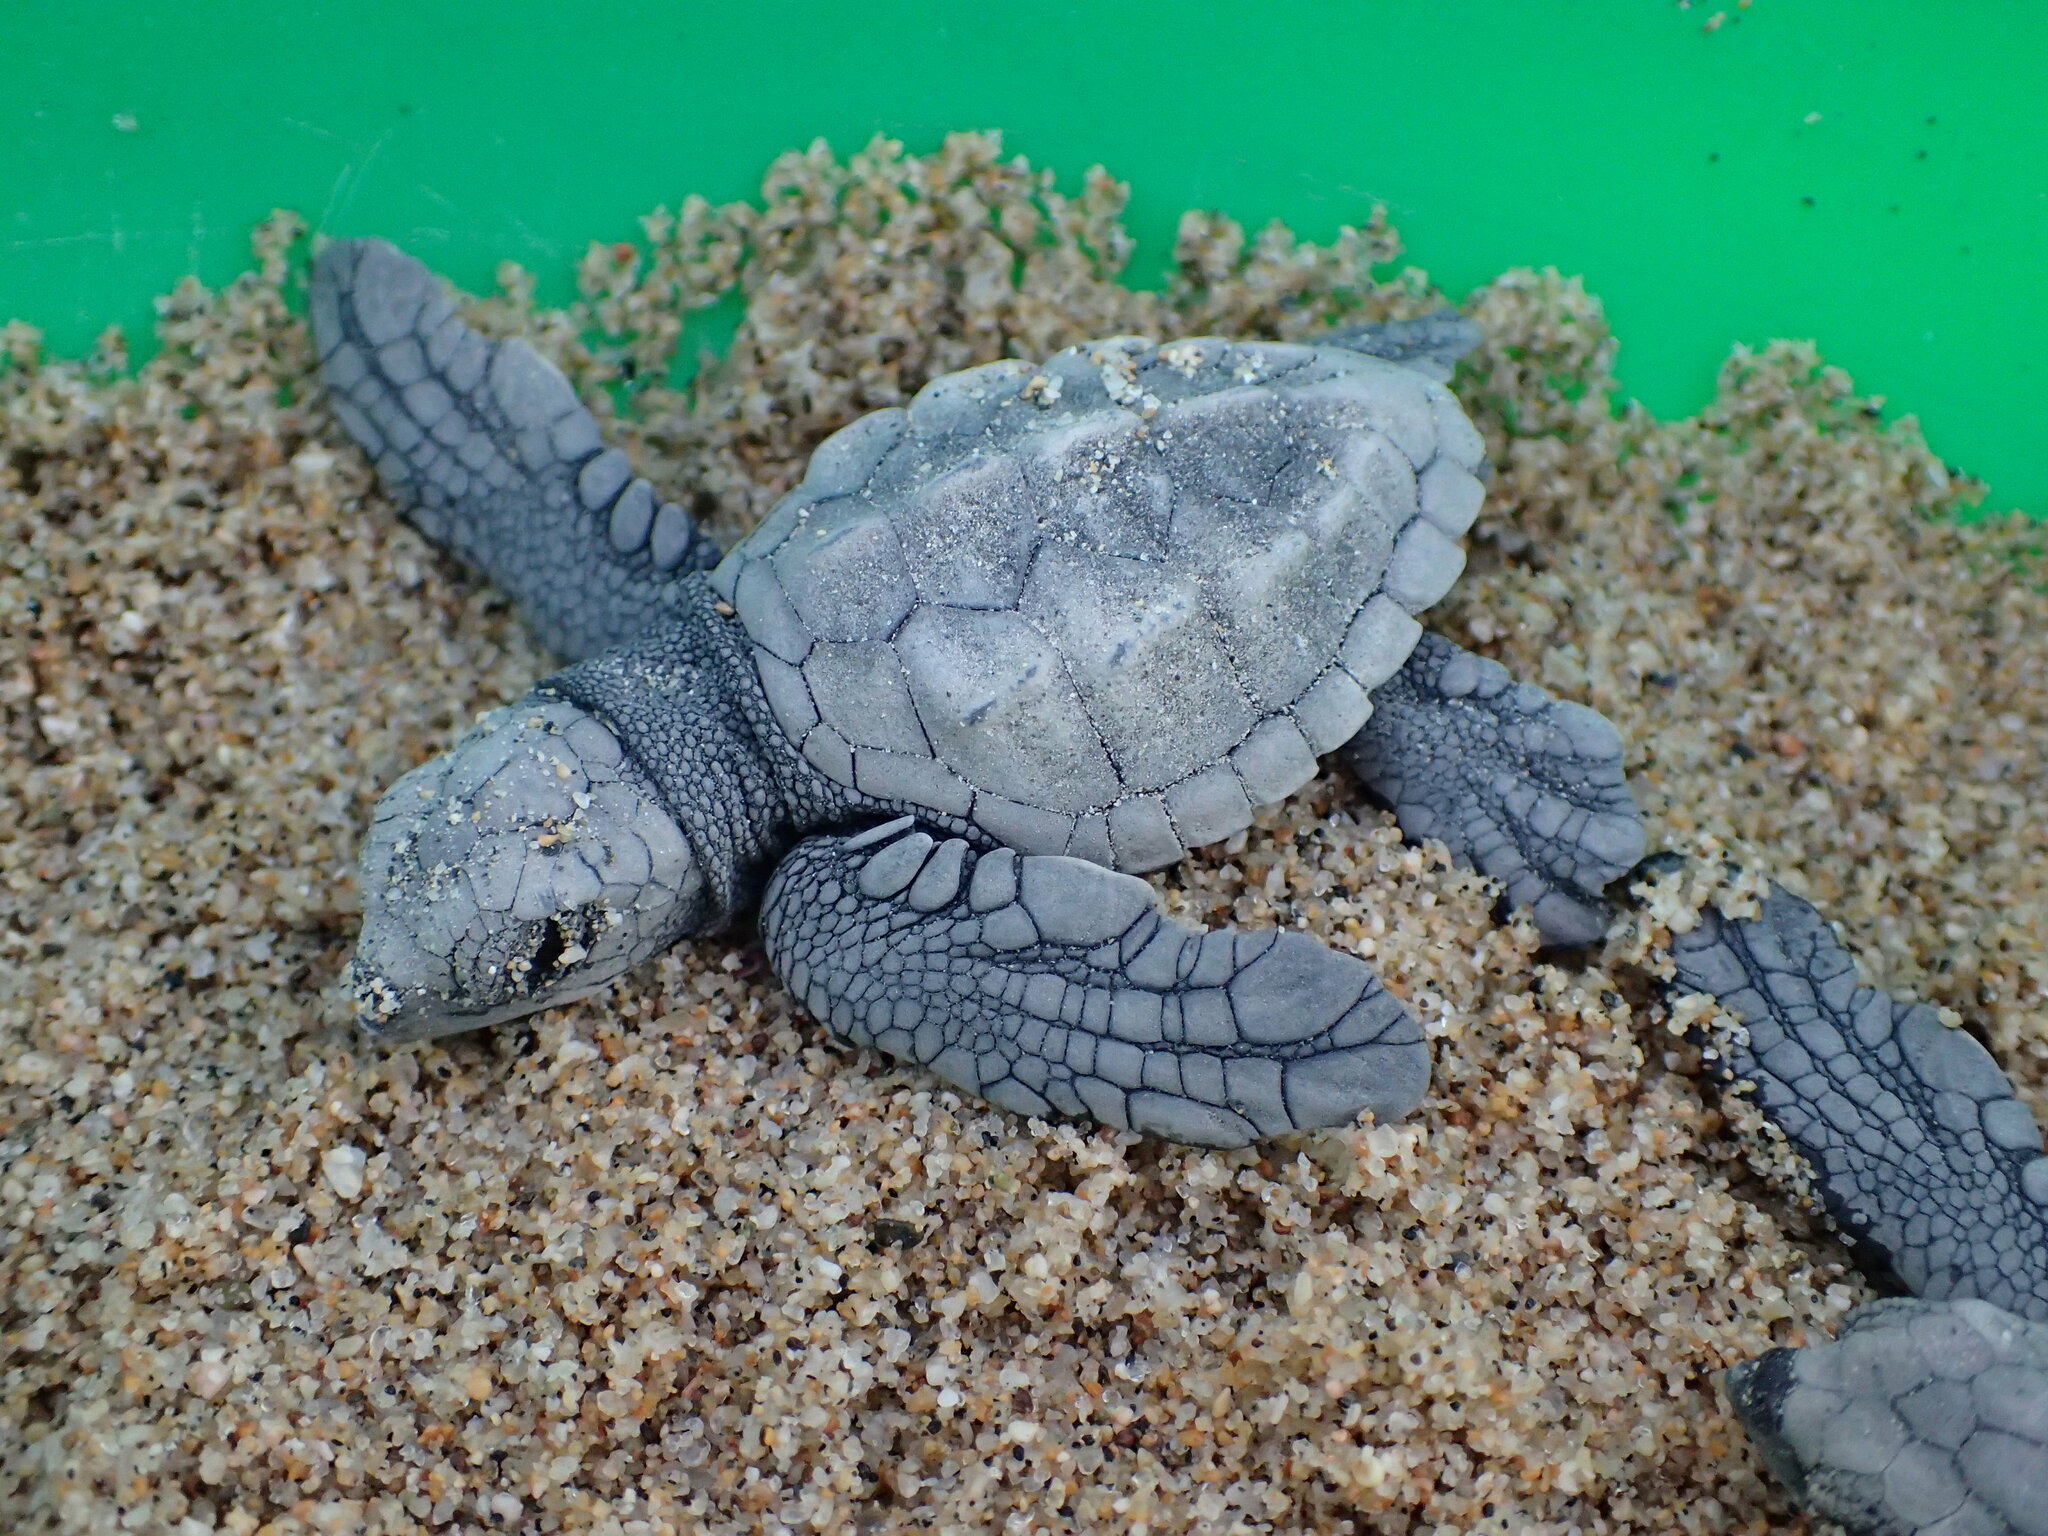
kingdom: Animalia
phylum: Chordata
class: Testudines
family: Cheloniidae
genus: Lepidochelys
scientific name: Lepidochelys olivacea
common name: Olive ridley
